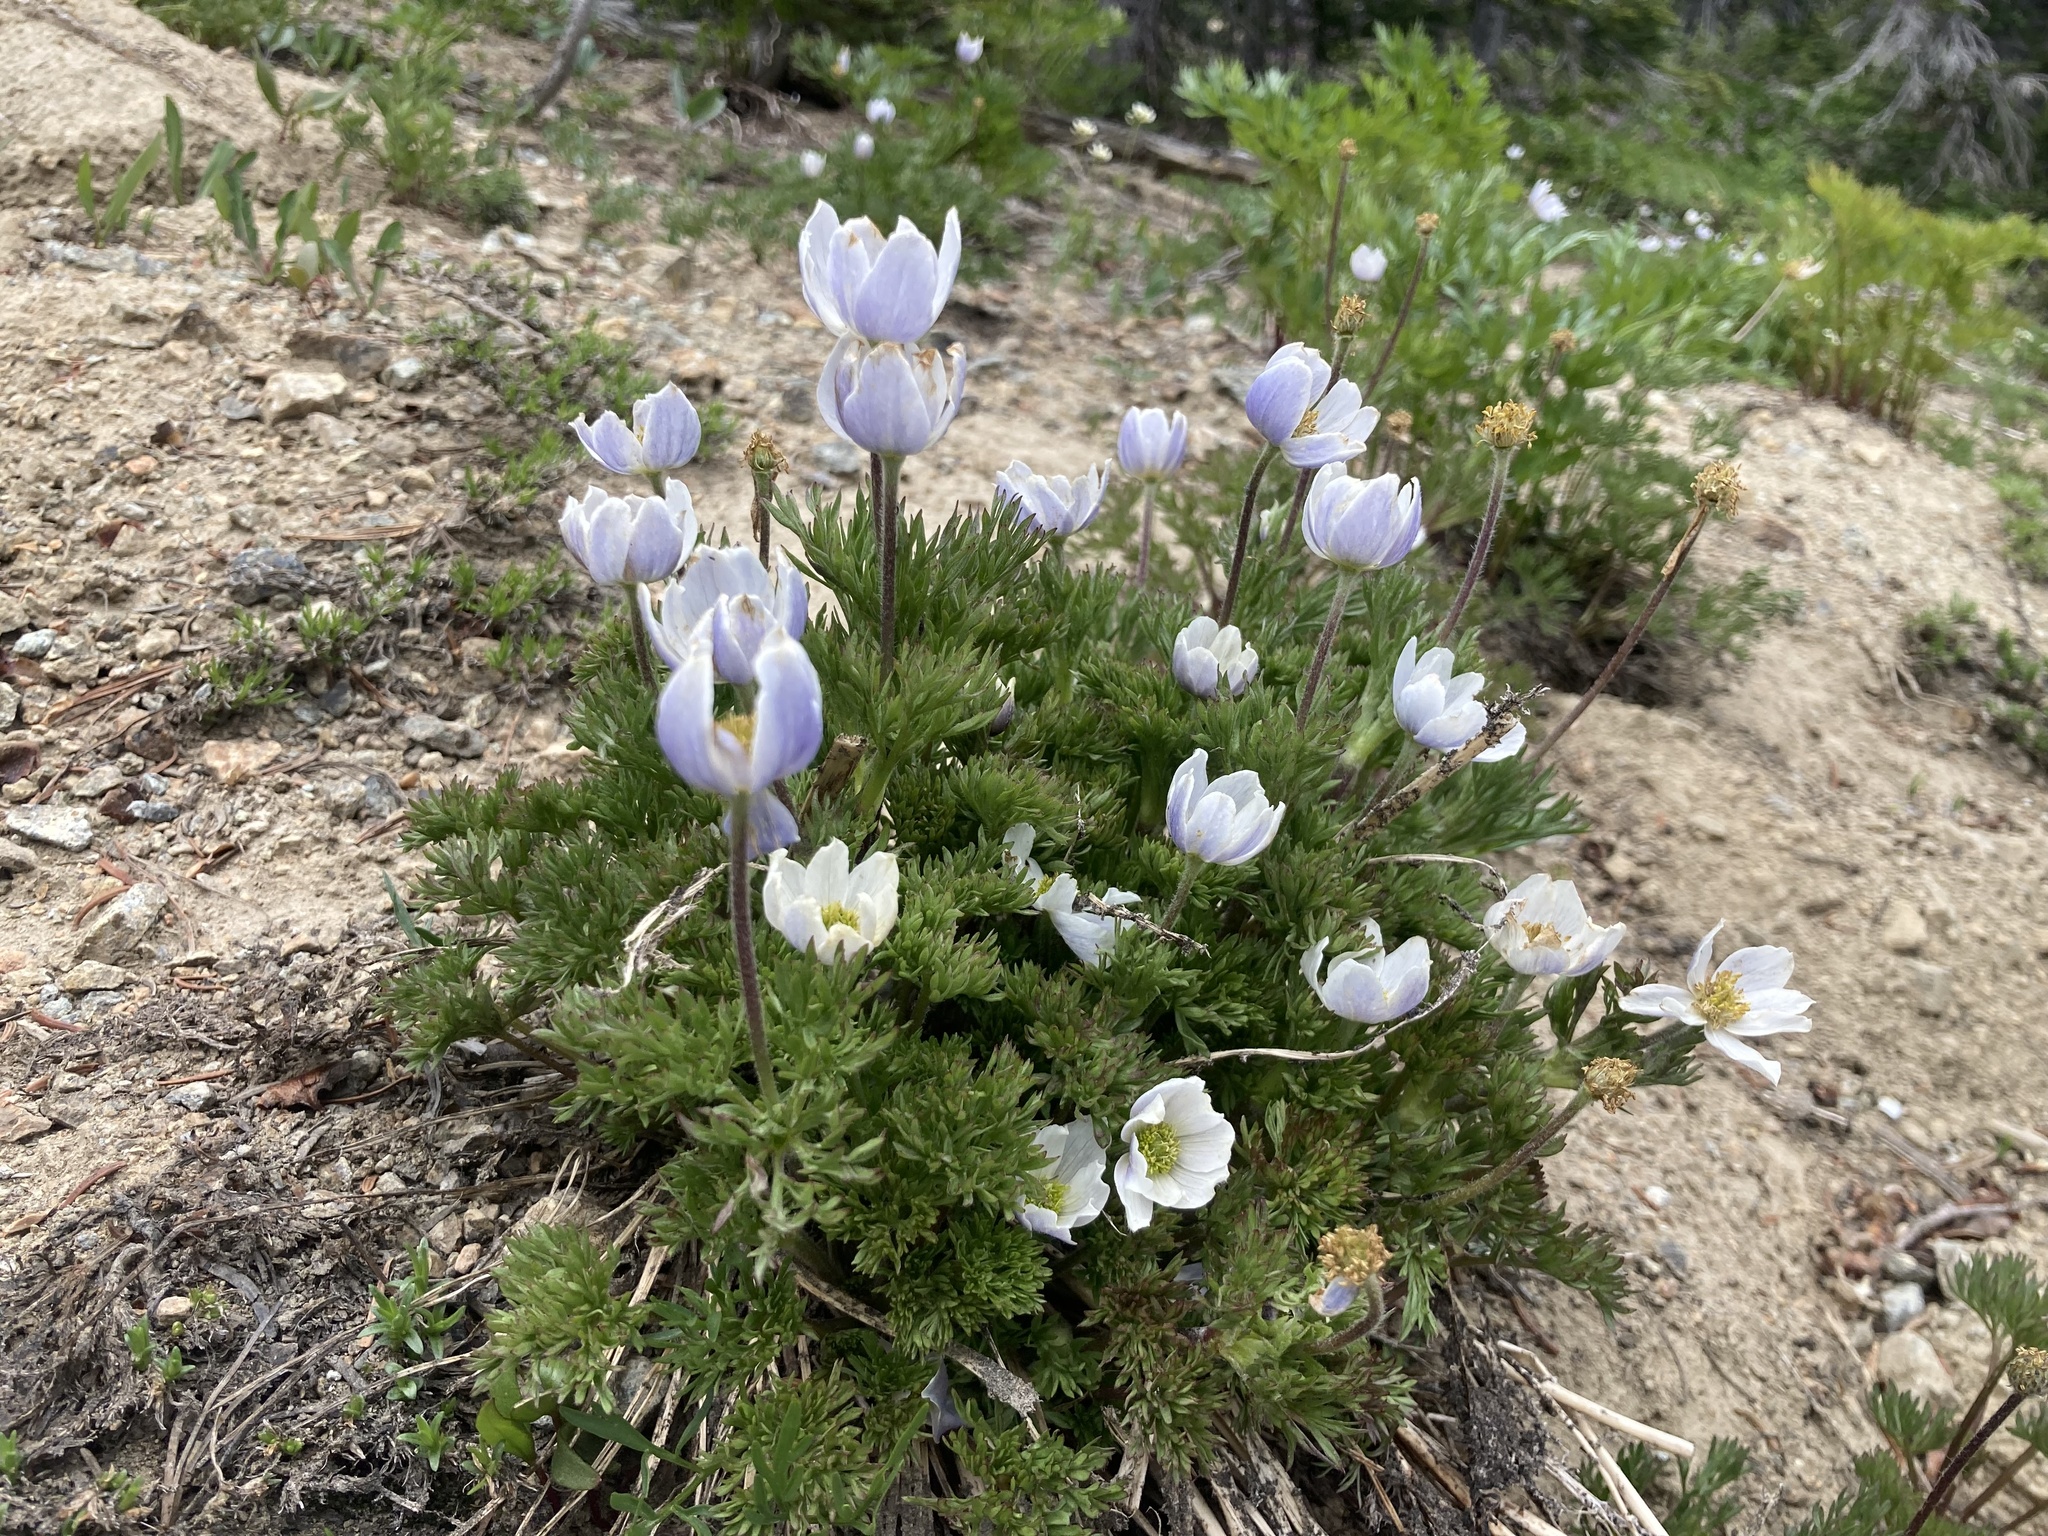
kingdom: Plantae
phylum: Tracheophyta
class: Magnoliopsida
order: Ranunculales
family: Ranunculaceae
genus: Anemone
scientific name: Anemone drummondii
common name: Drummond's anemone
